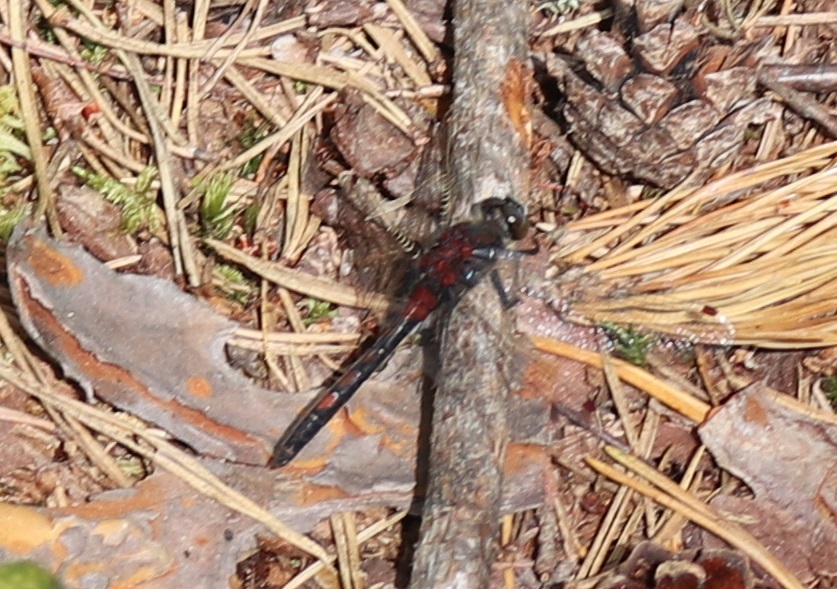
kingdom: Animalia
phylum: Arthropoda
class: Insecta
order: Odonata
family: Libellulidae
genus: Leucorrhinia
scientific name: Leucorrhinia rubicunda
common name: Ruby whiteface
